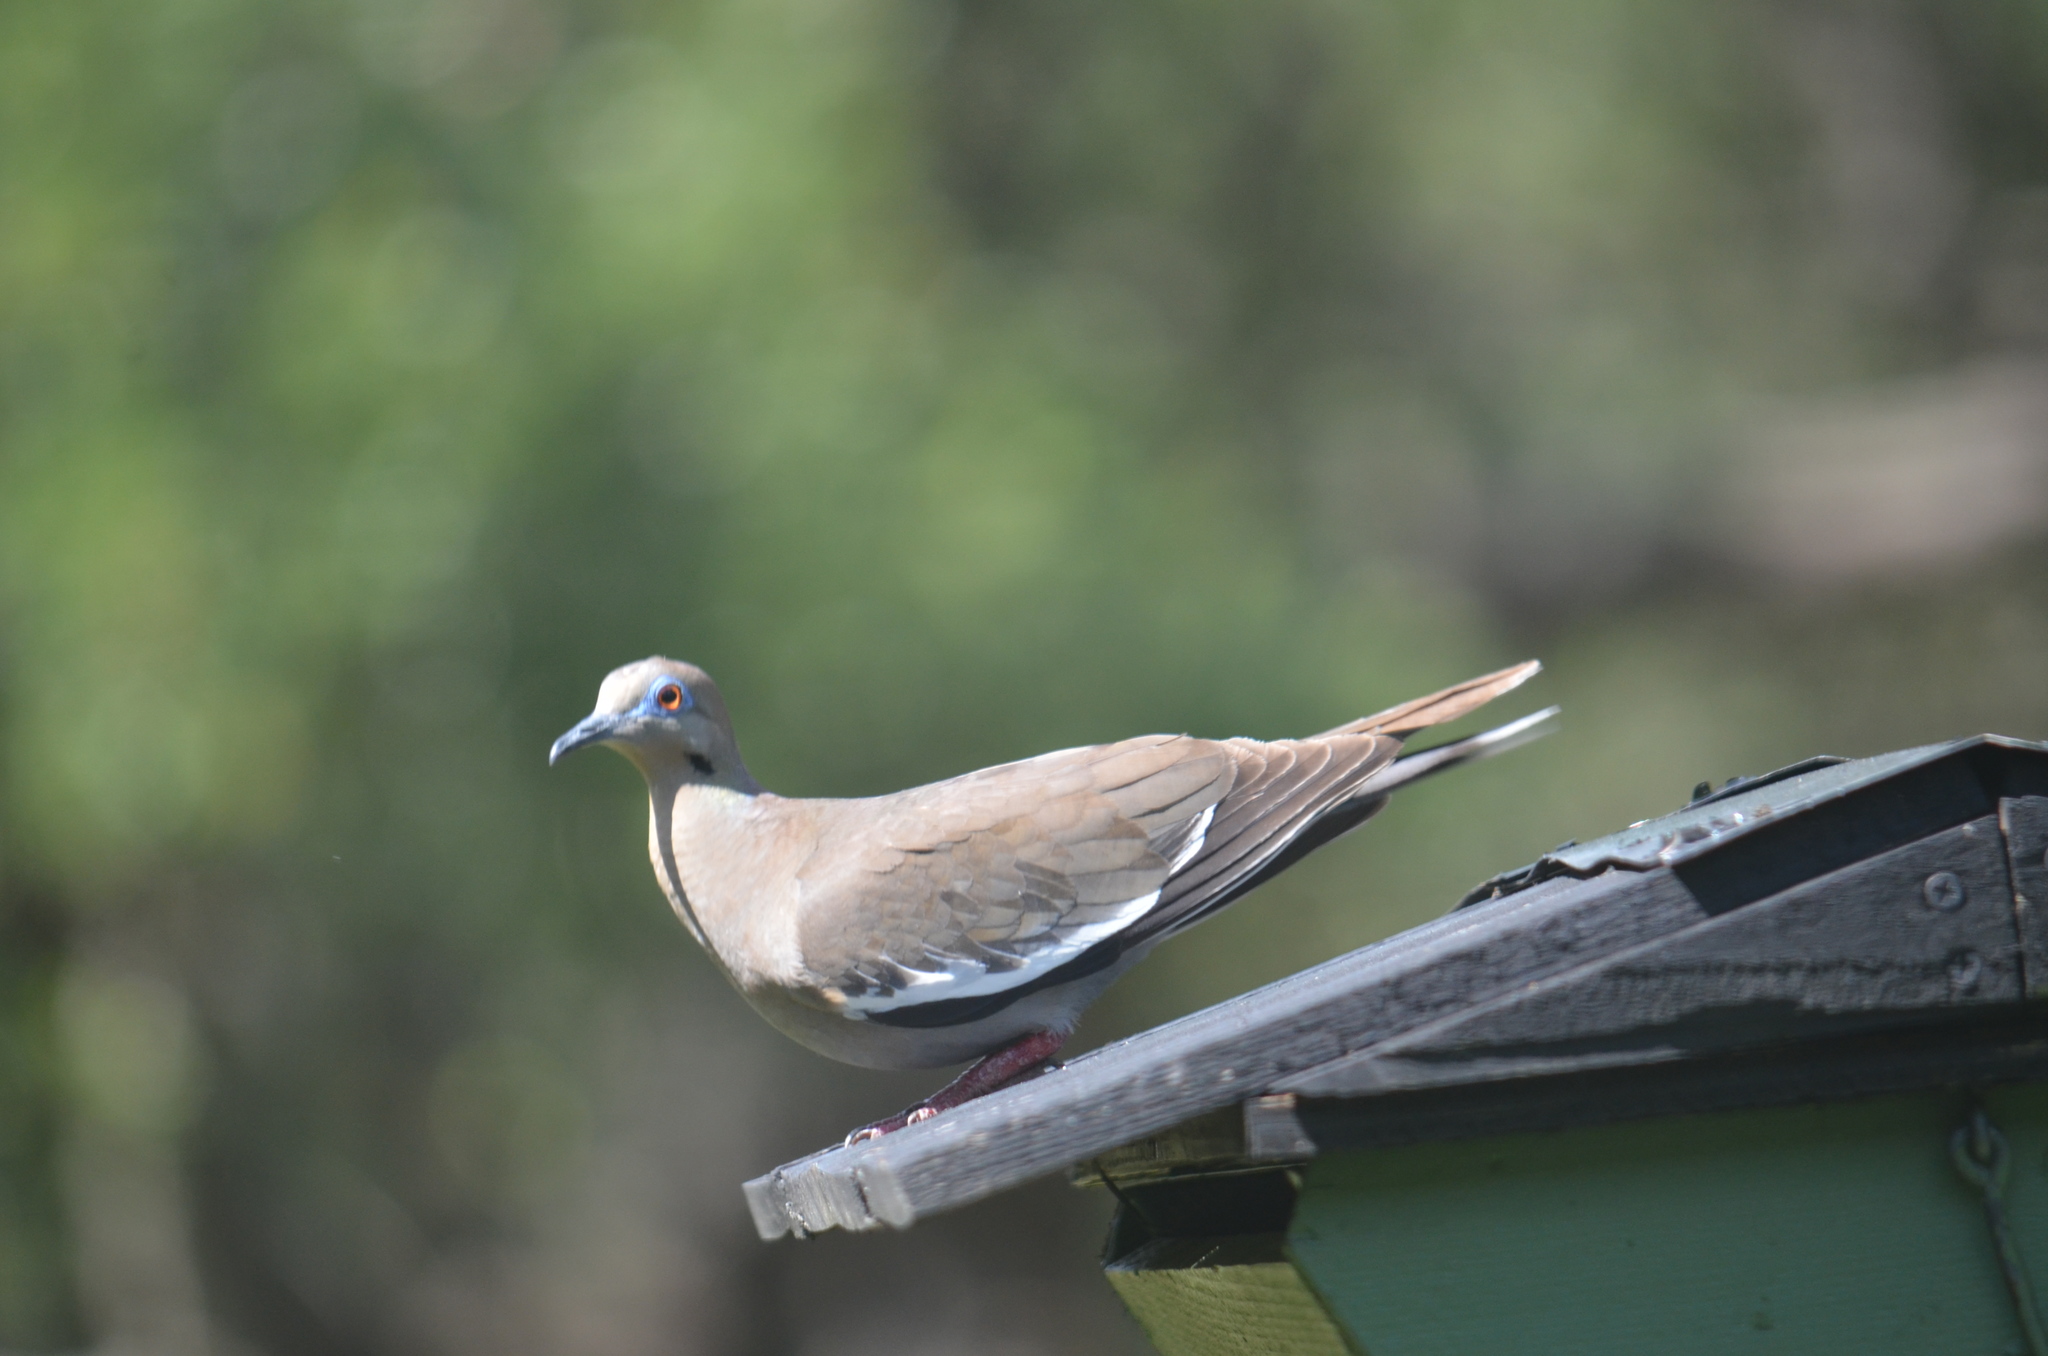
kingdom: Animalia
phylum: Chordata
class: Aves
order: Columbiformes
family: Columbidae
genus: Zenaida
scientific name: Zenaida asiatica
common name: White-winged dove
